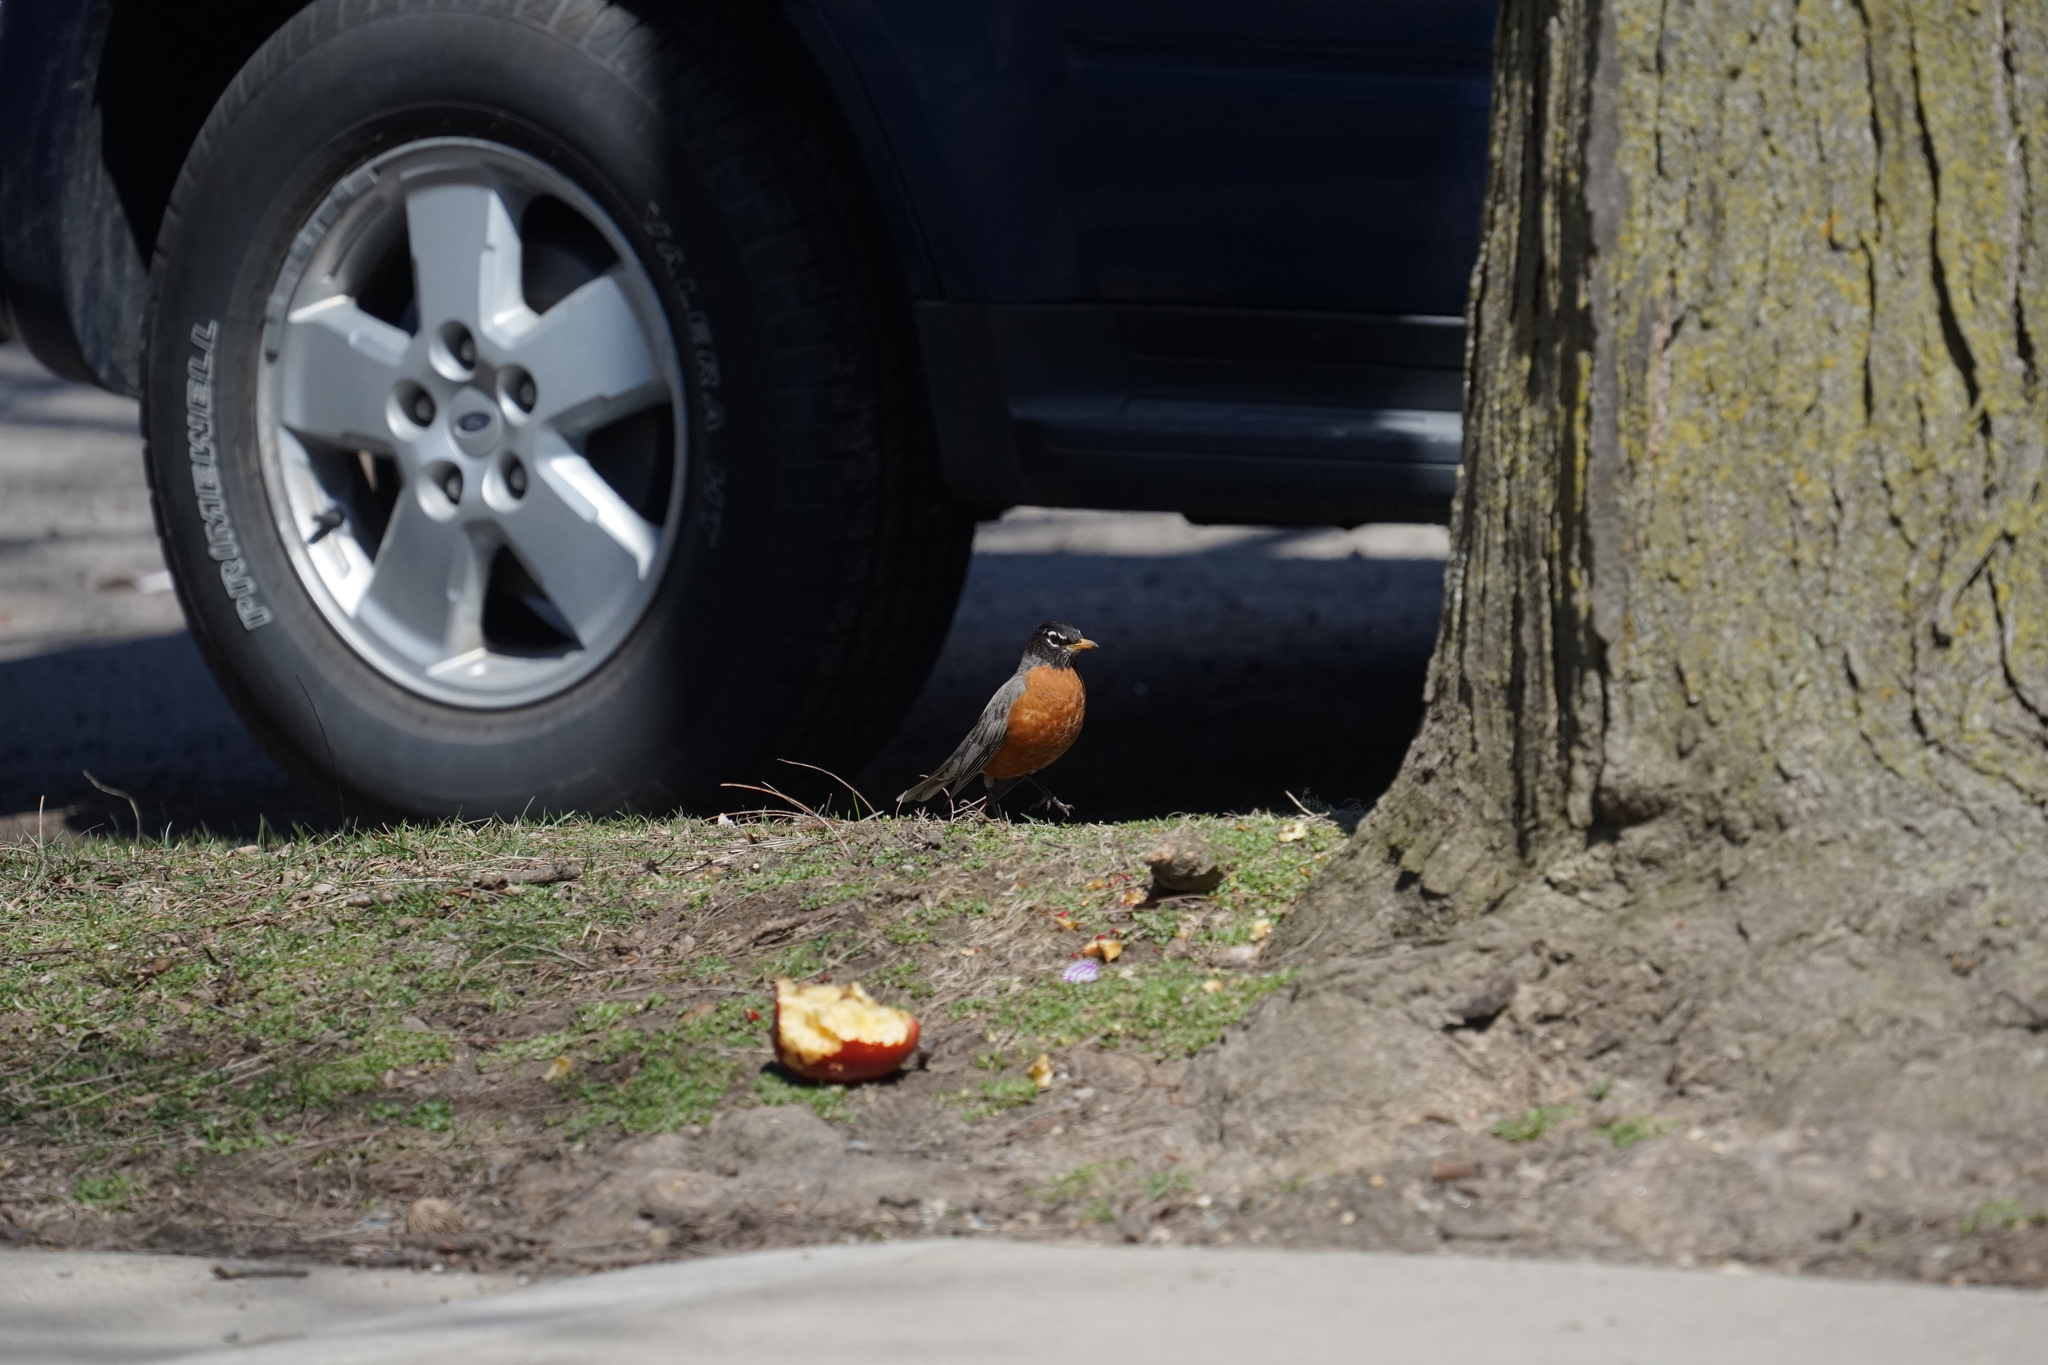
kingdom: Animalia
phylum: Chordata
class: Aves
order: Passeriformes
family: Turdidae
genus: Turdus
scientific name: Turdus migratorius
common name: American robin
